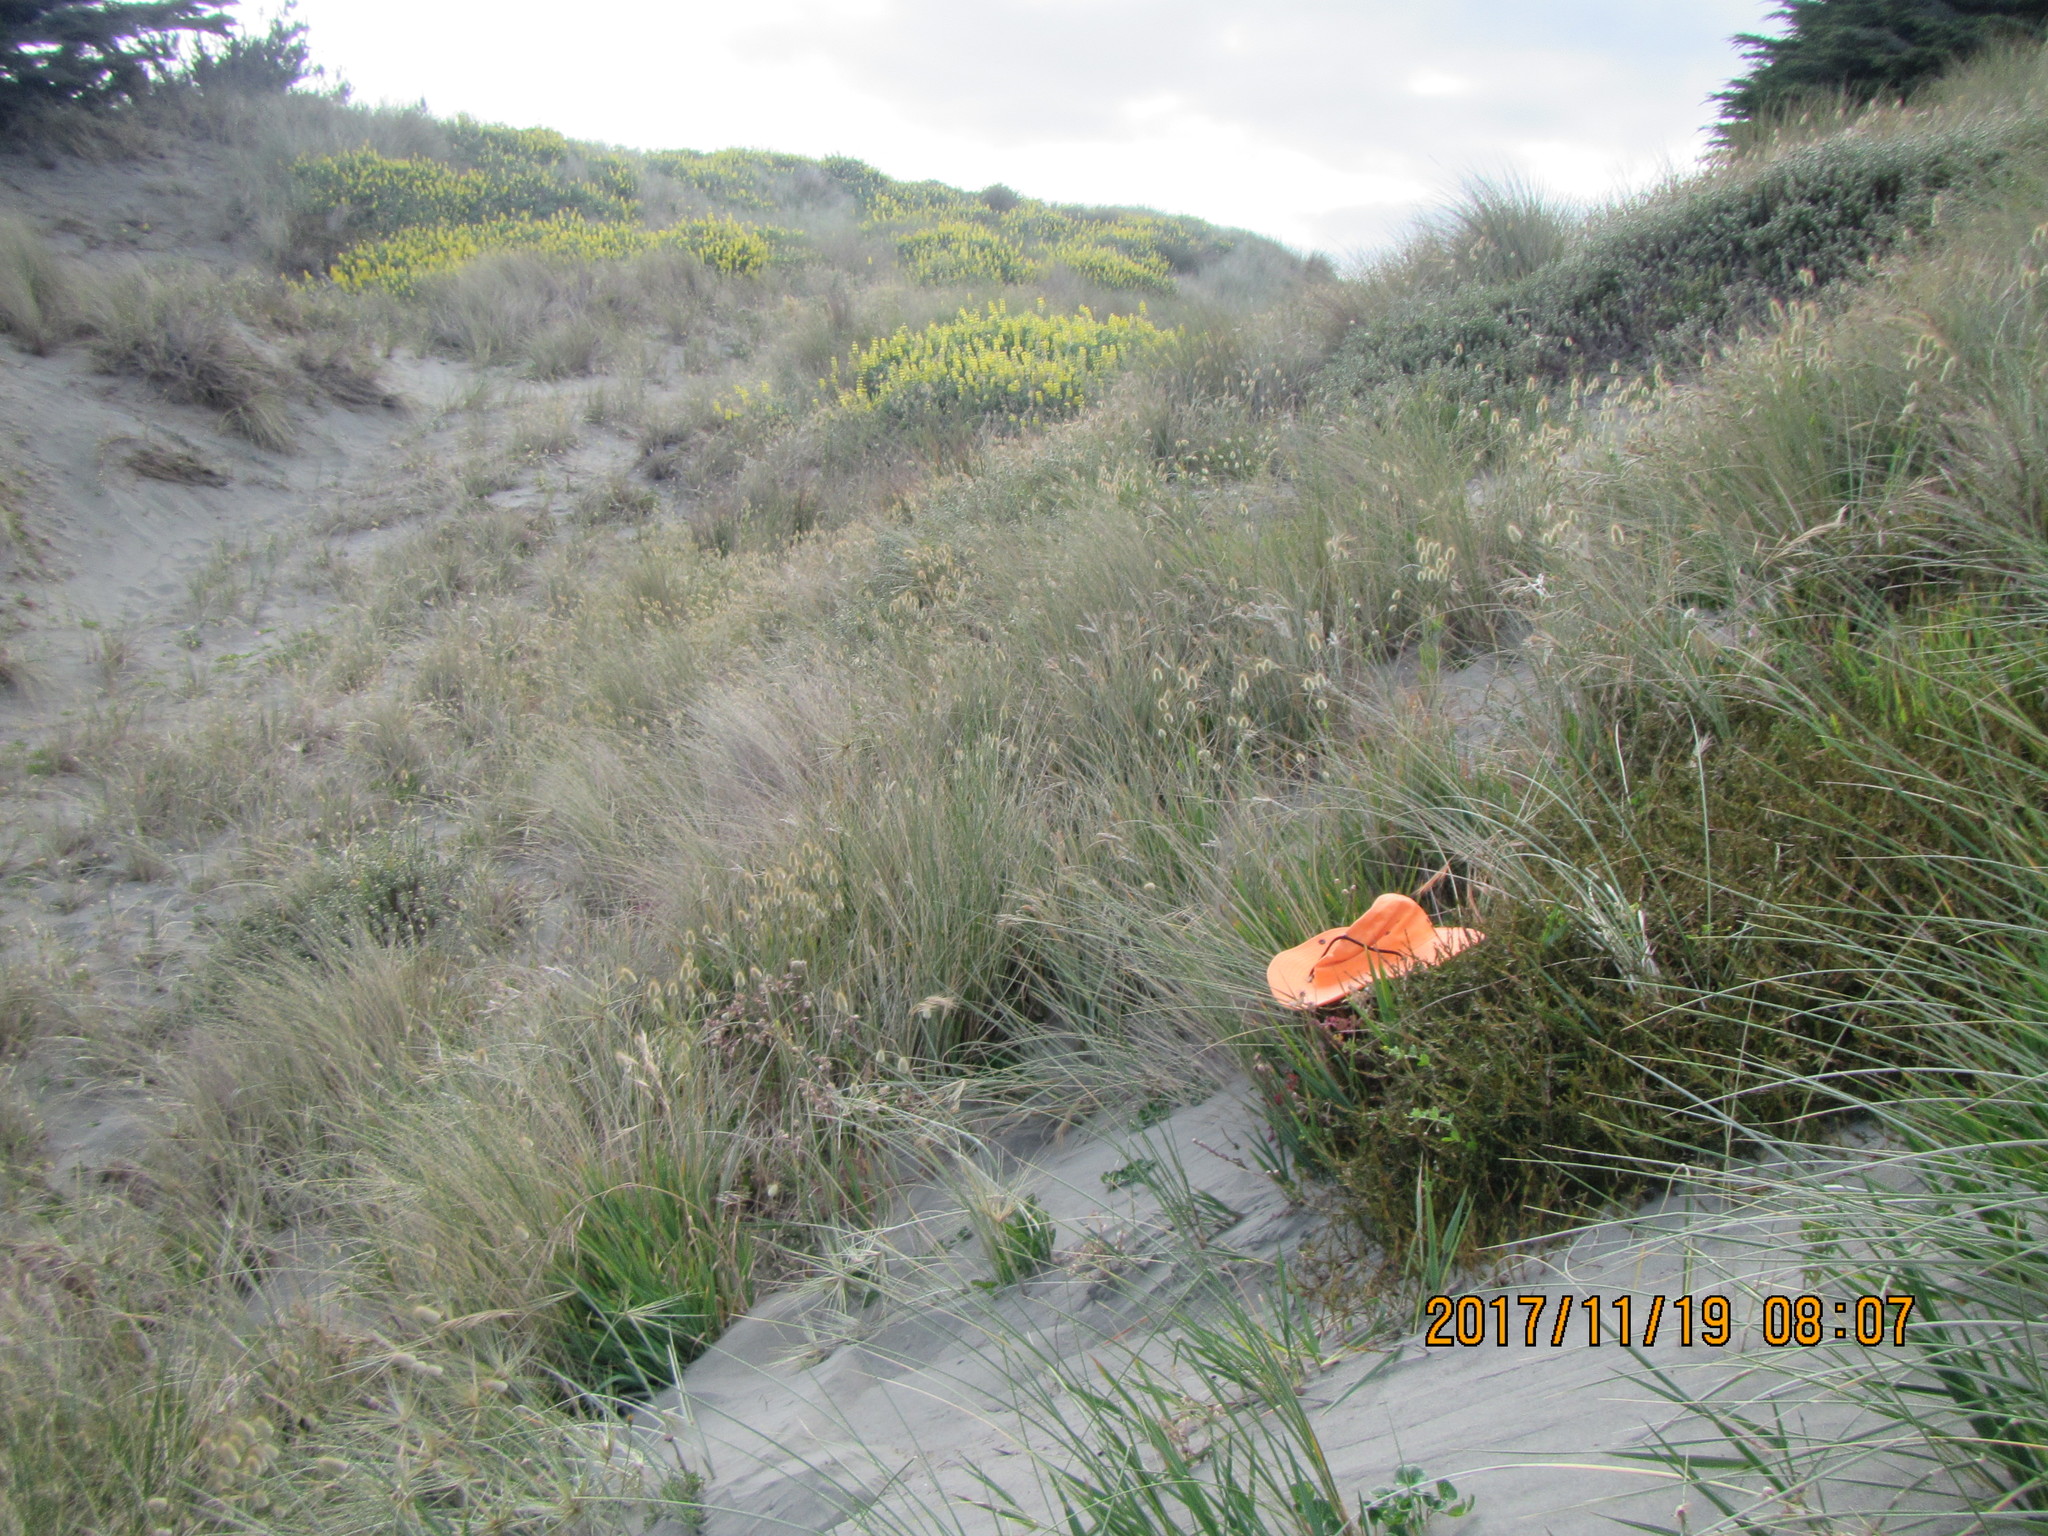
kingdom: Plantae
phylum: Tracheophyta
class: Magnoliopsida
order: Gentianales
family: Rubiaceae
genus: Coprosma
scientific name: Coprosma acerosa
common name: Sand coprosma
